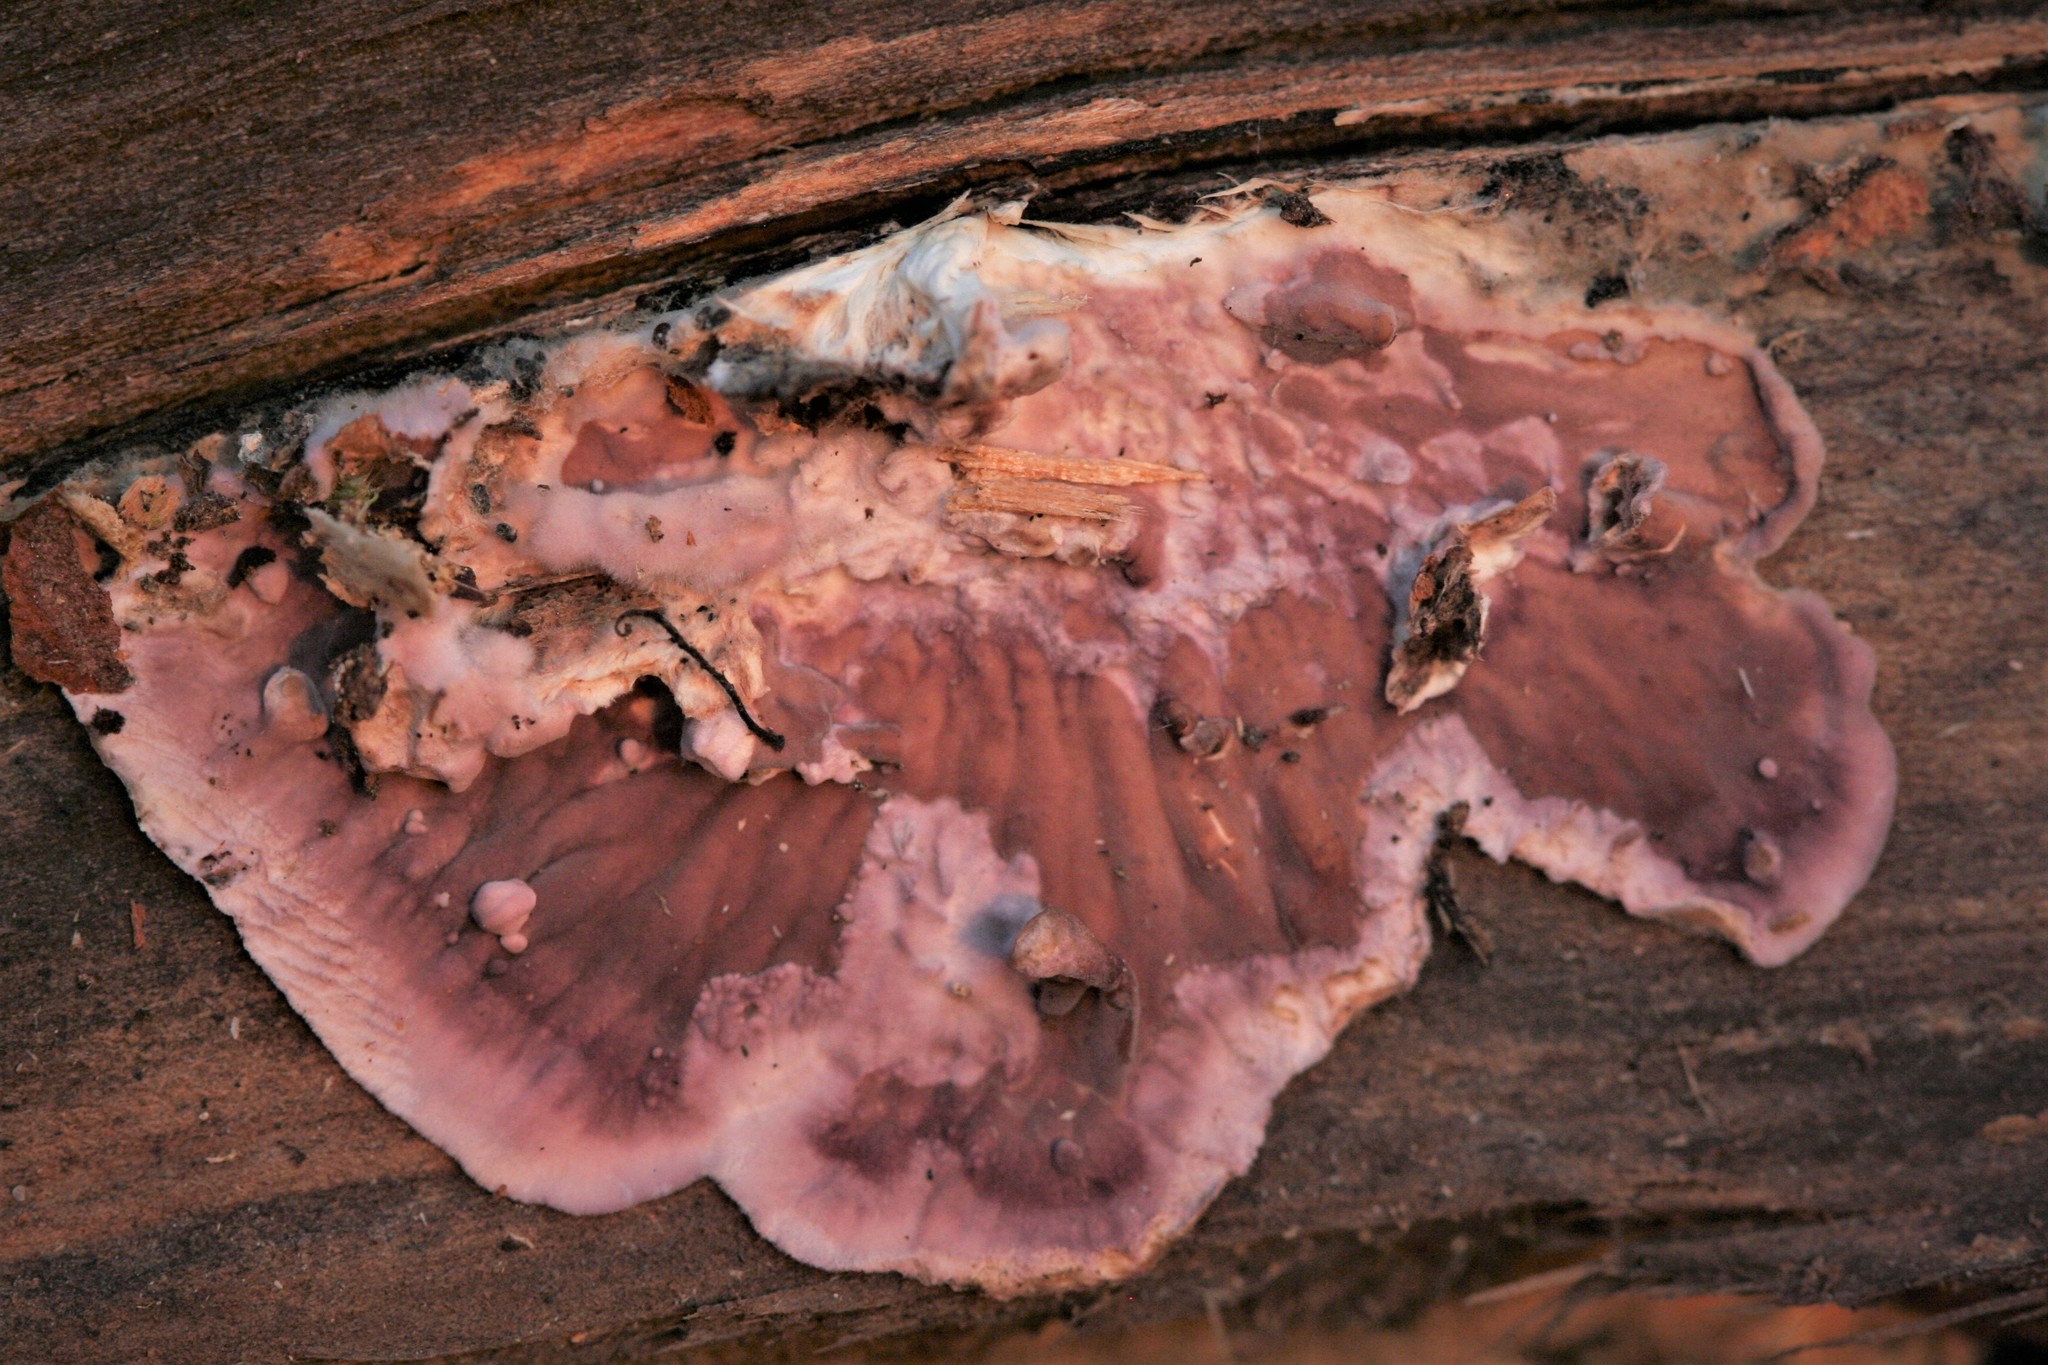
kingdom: Fungi
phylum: Basidiomycota
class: Agaricomycetes
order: Agaricales
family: Cyphellaceae
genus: Chondrostereum
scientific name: Chondrostereum purpureum
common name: Silver leaf disease
